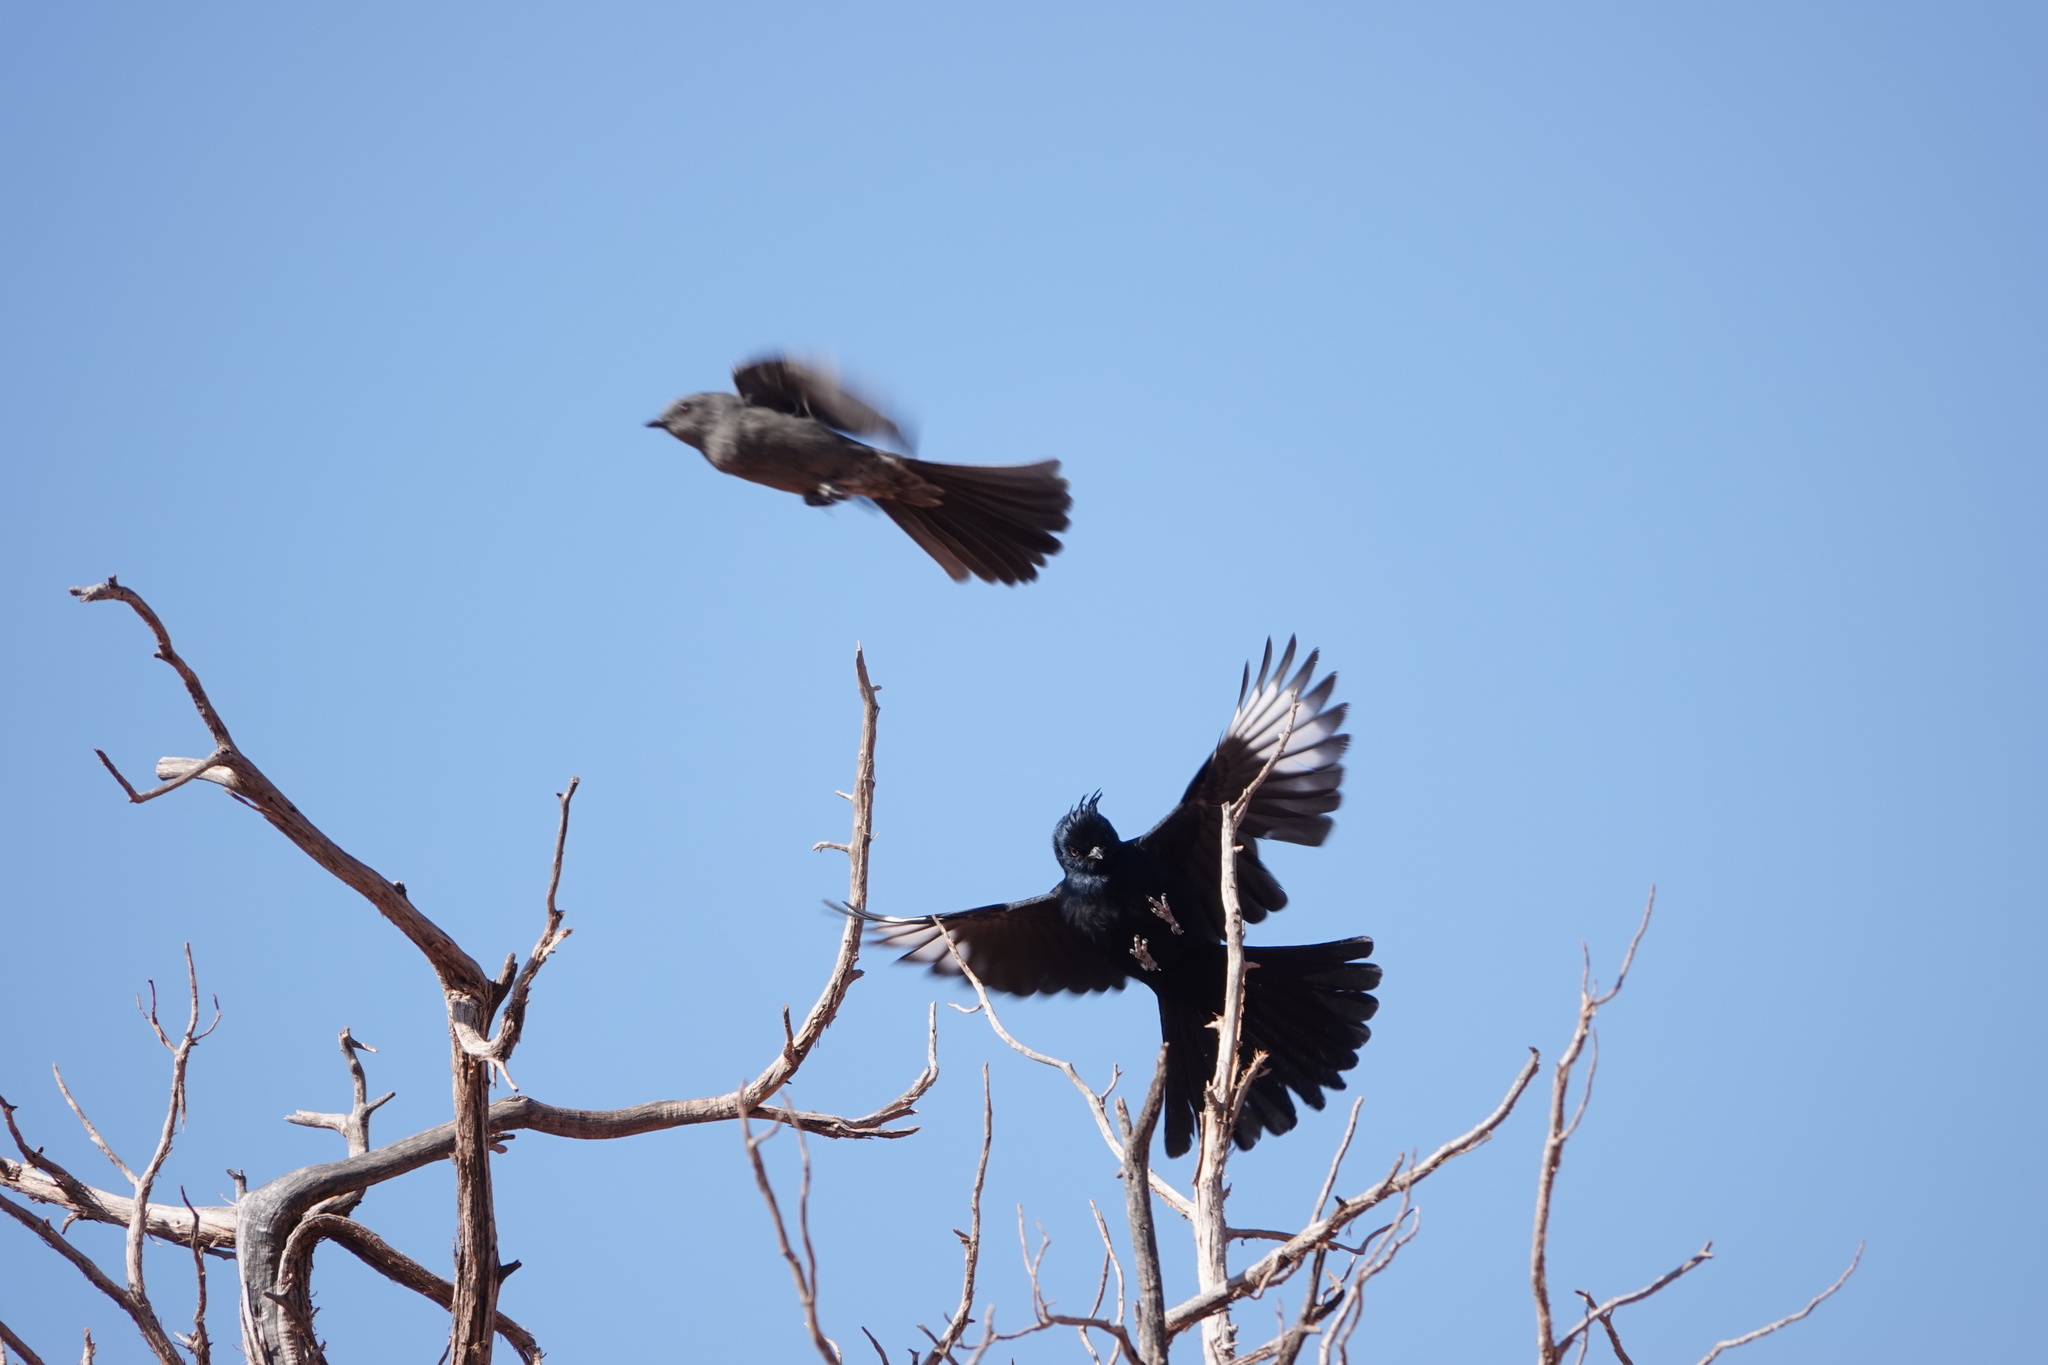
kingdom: Animalia
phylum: Chordata
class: Aves
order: Passeriformes
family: Ptilogonatidae
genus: Phainopepla
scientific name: Phainopepla nitens
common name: Phainopepla
